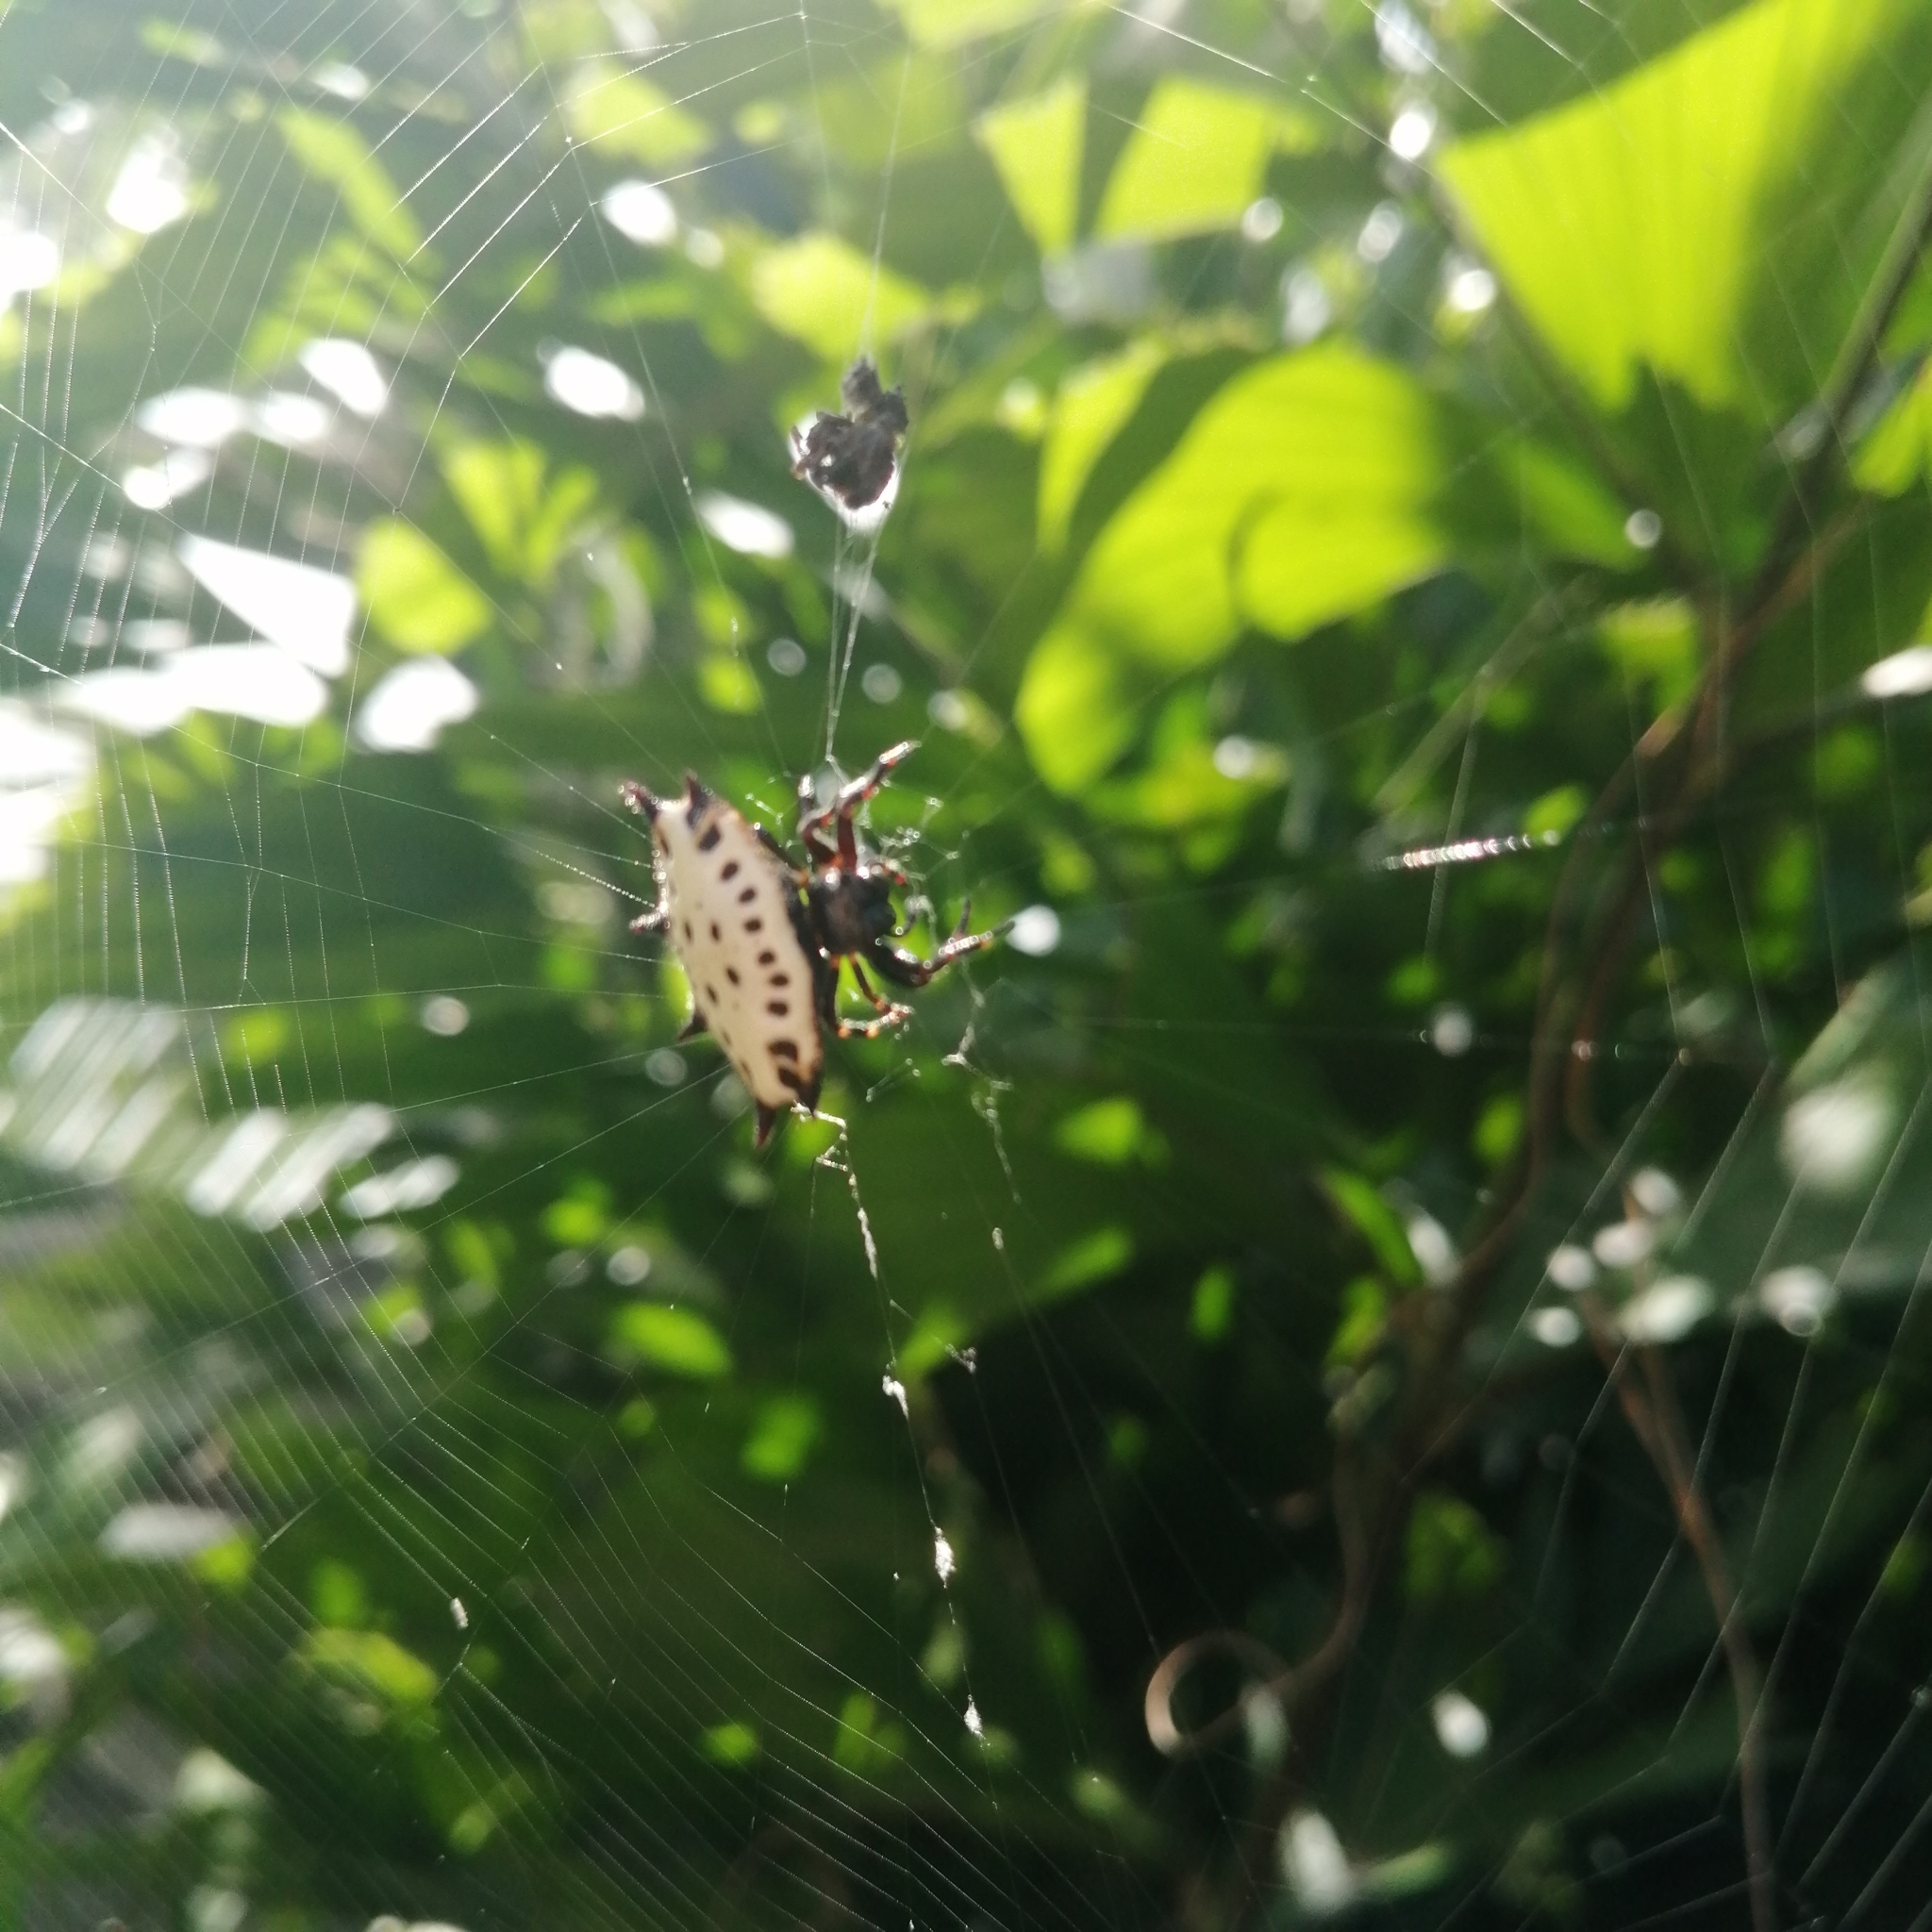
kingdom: Animalia
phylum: Arthropoda
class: Arachnida
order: Araneae
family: Araneidae
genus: Gasteracantha
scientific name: Gasteracantha cancriformis
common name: Orb weavers
